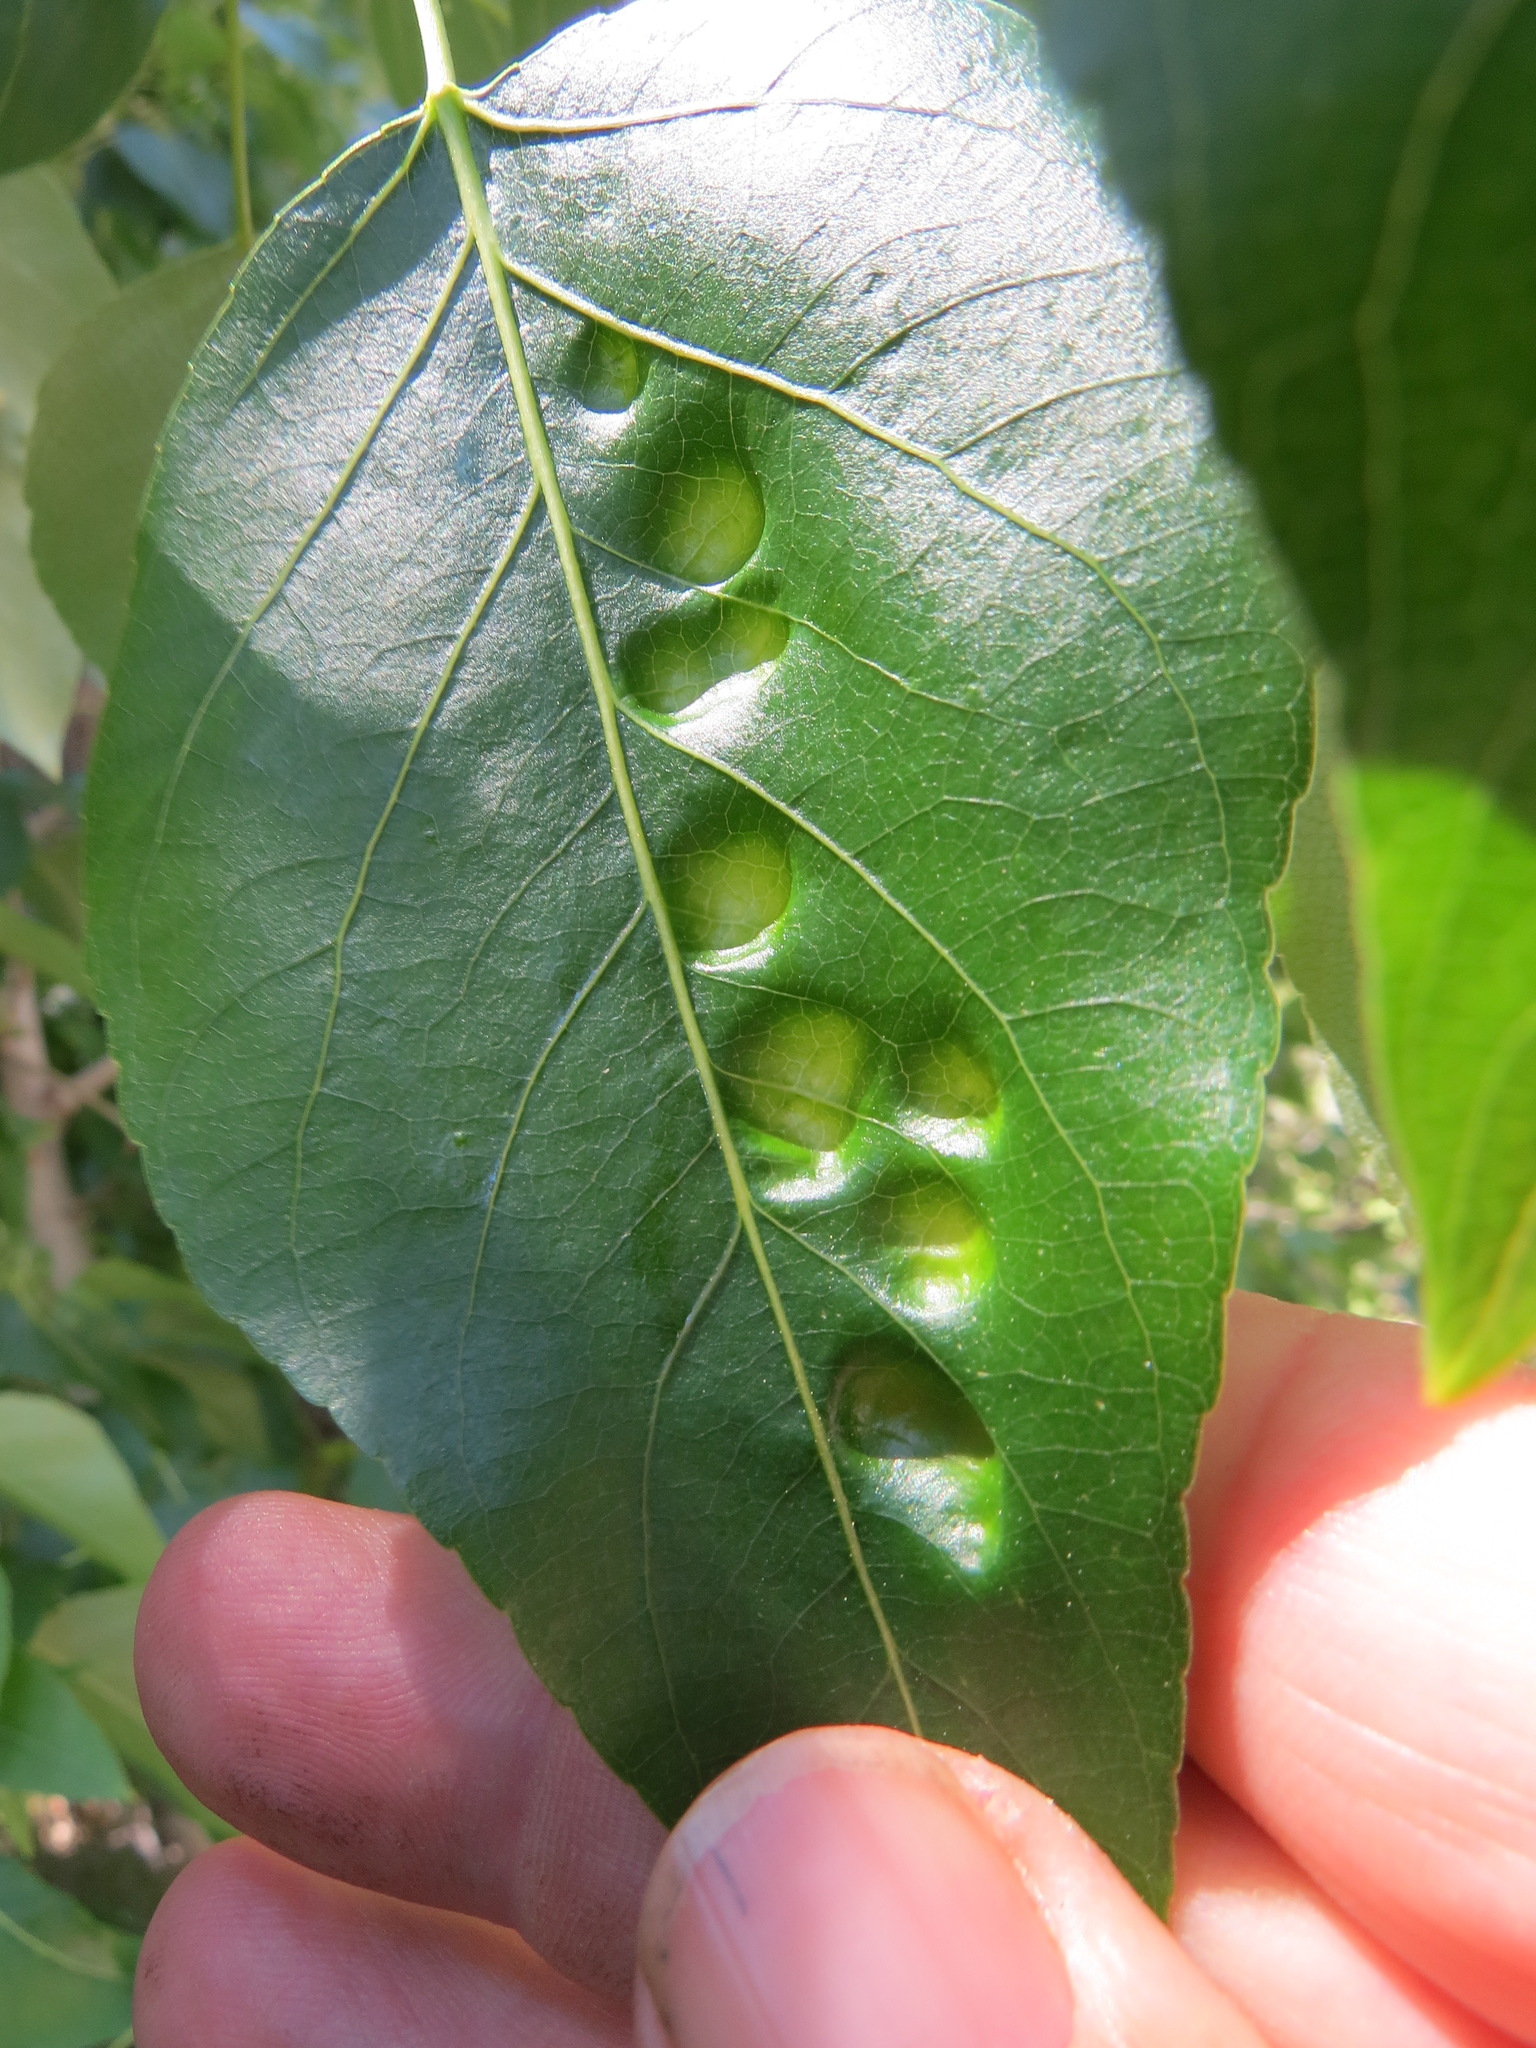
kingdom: Fungi
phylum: Ascomycota
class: Taphrinomycetes
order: Taphrinales
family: Taphrinaceae
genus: Taphrina
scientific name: Taphrina populi-salicis
